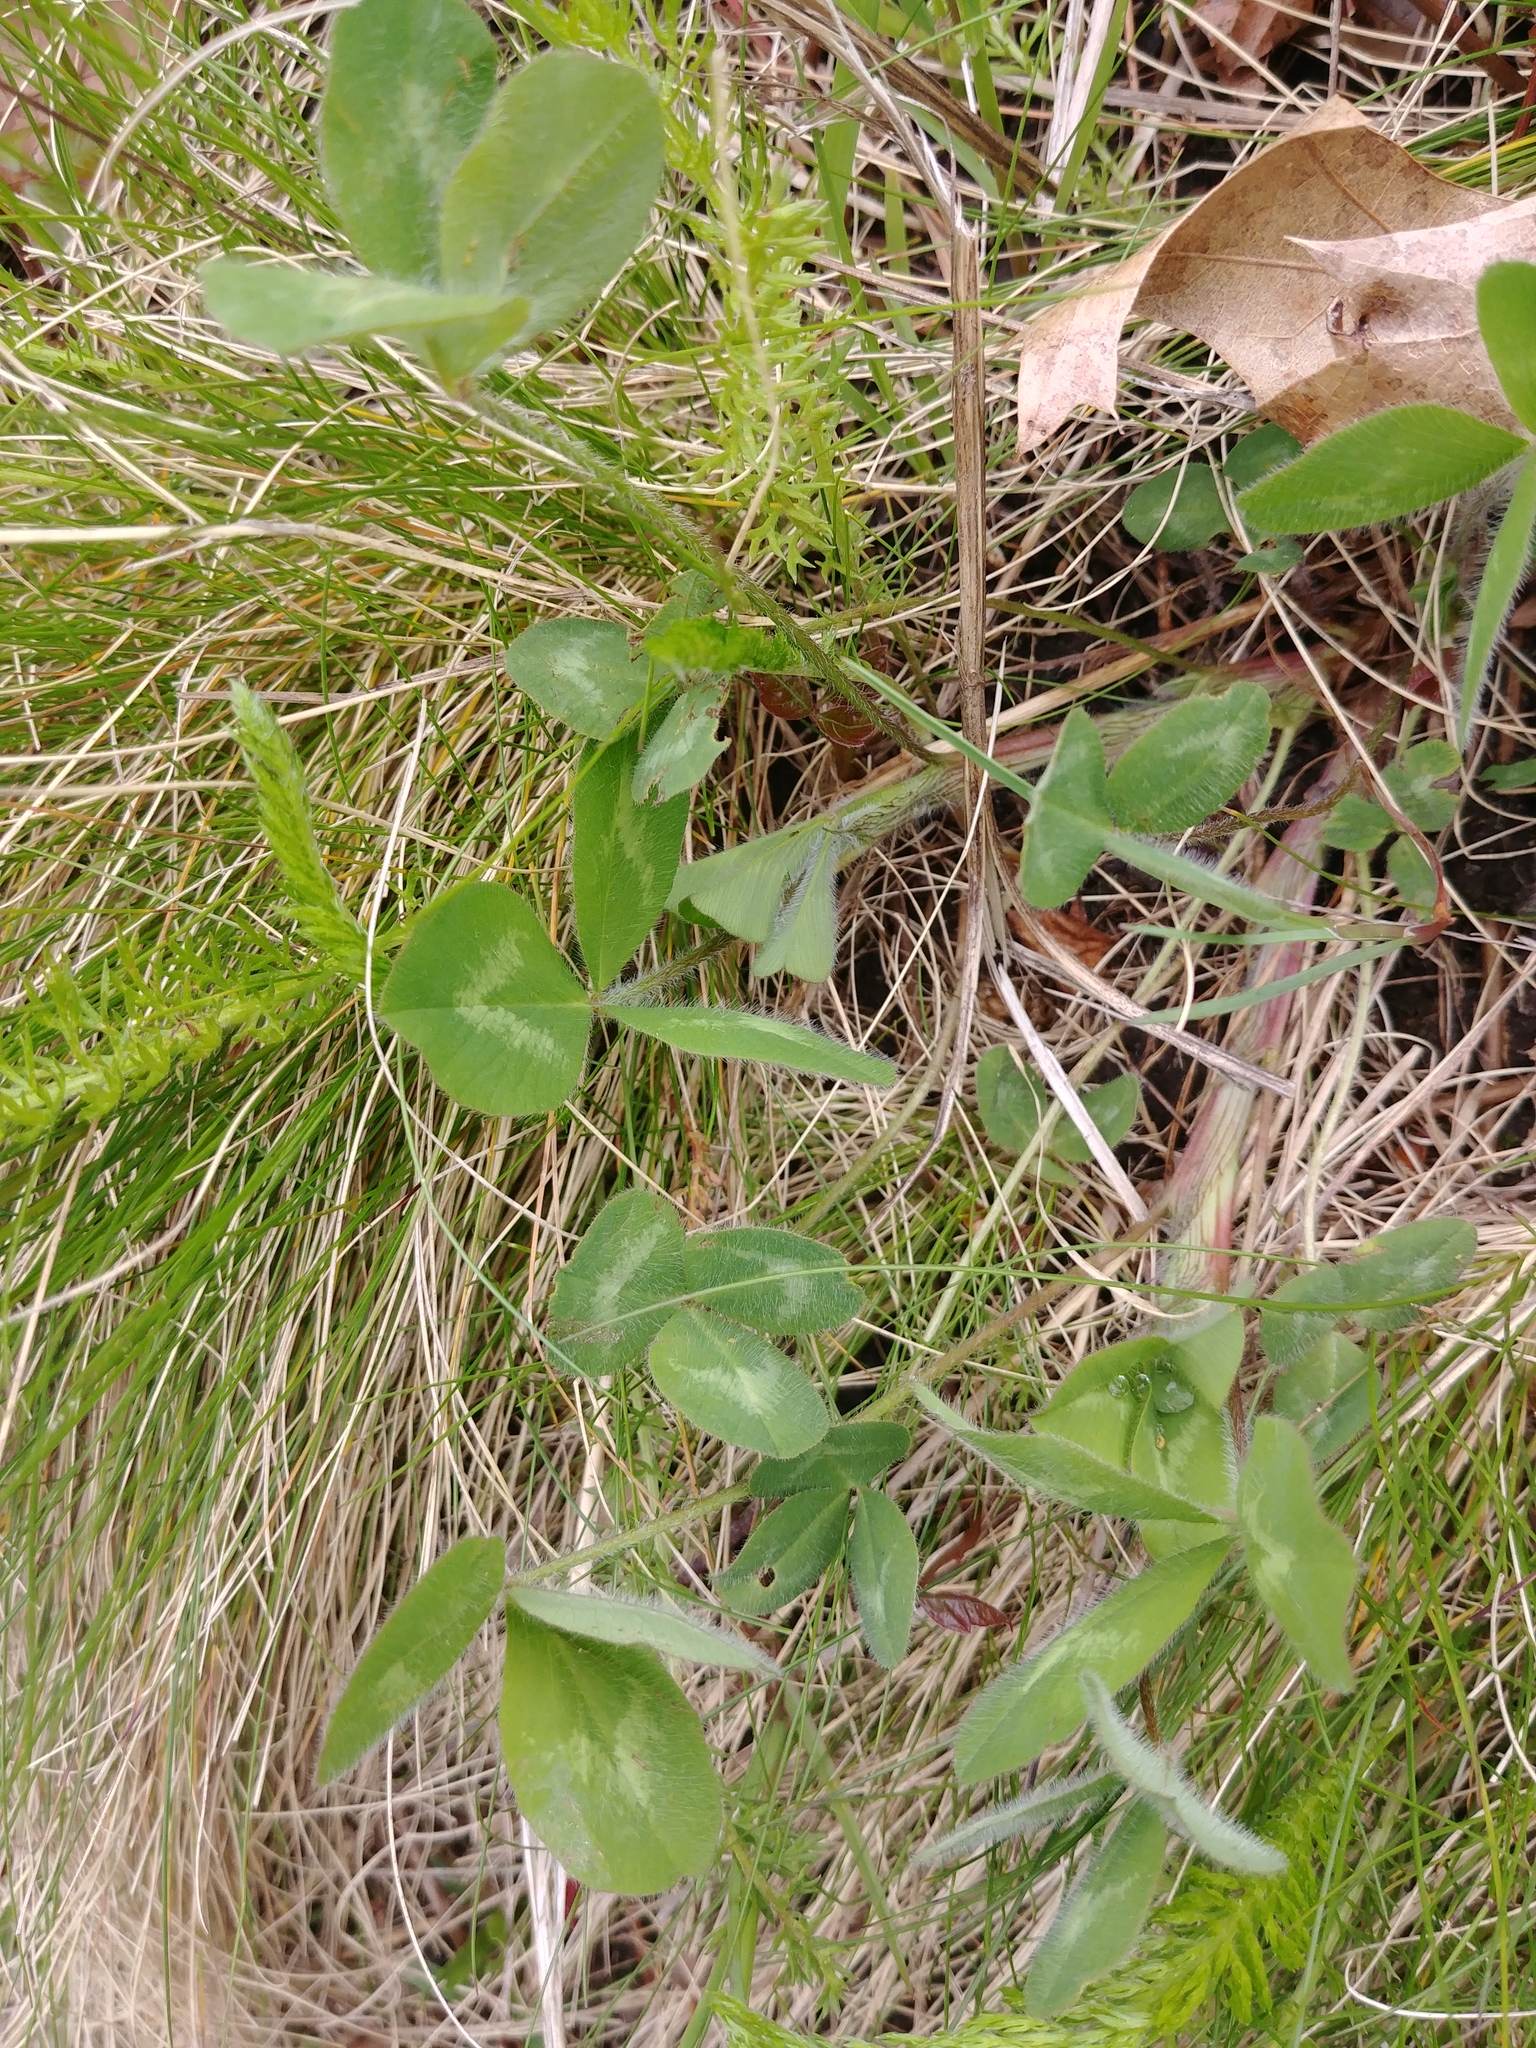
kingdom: Plantae
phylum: Tracheophyta
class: Magnoliopsida
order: Fabales
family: Fabaceae
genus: Trifolium
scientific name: Trifolium pratense
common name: Red clover
